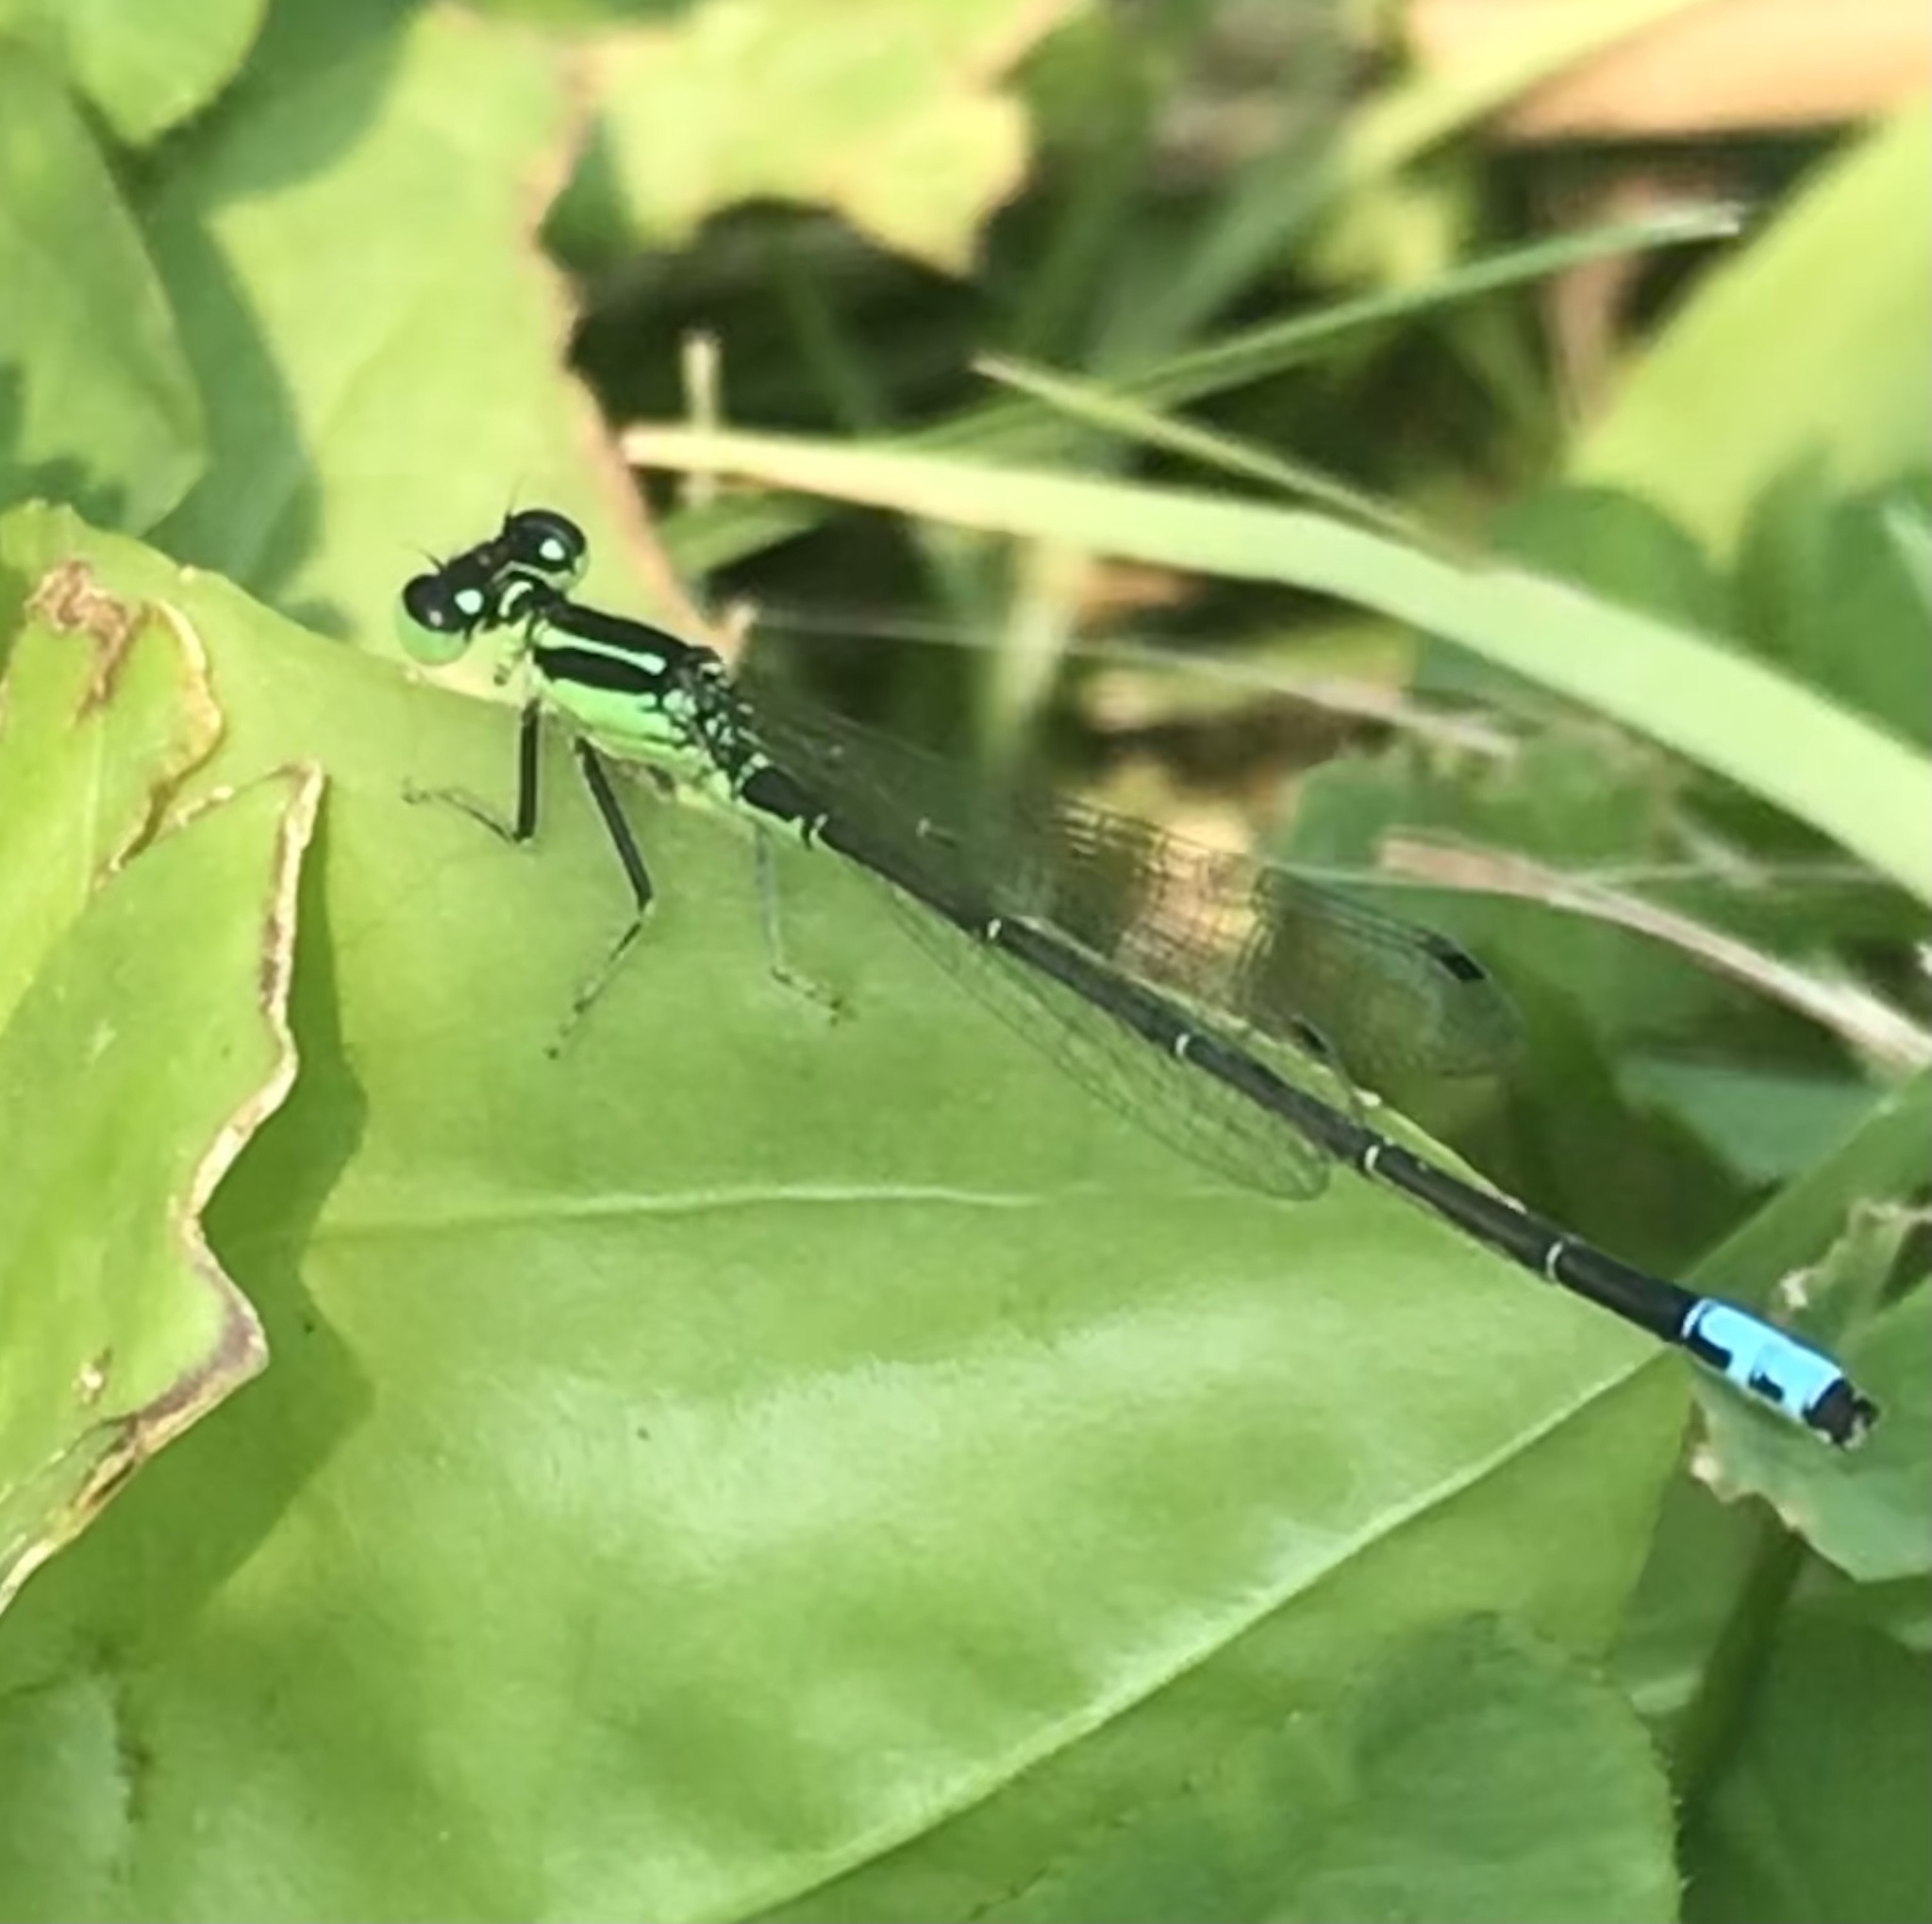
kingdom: Animalia
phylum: Arthropoda
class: Insecta
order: Odonata
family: Coenagrionidae
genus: Ischnura
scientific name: Ischnura verticalis
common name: Eastern forktail
